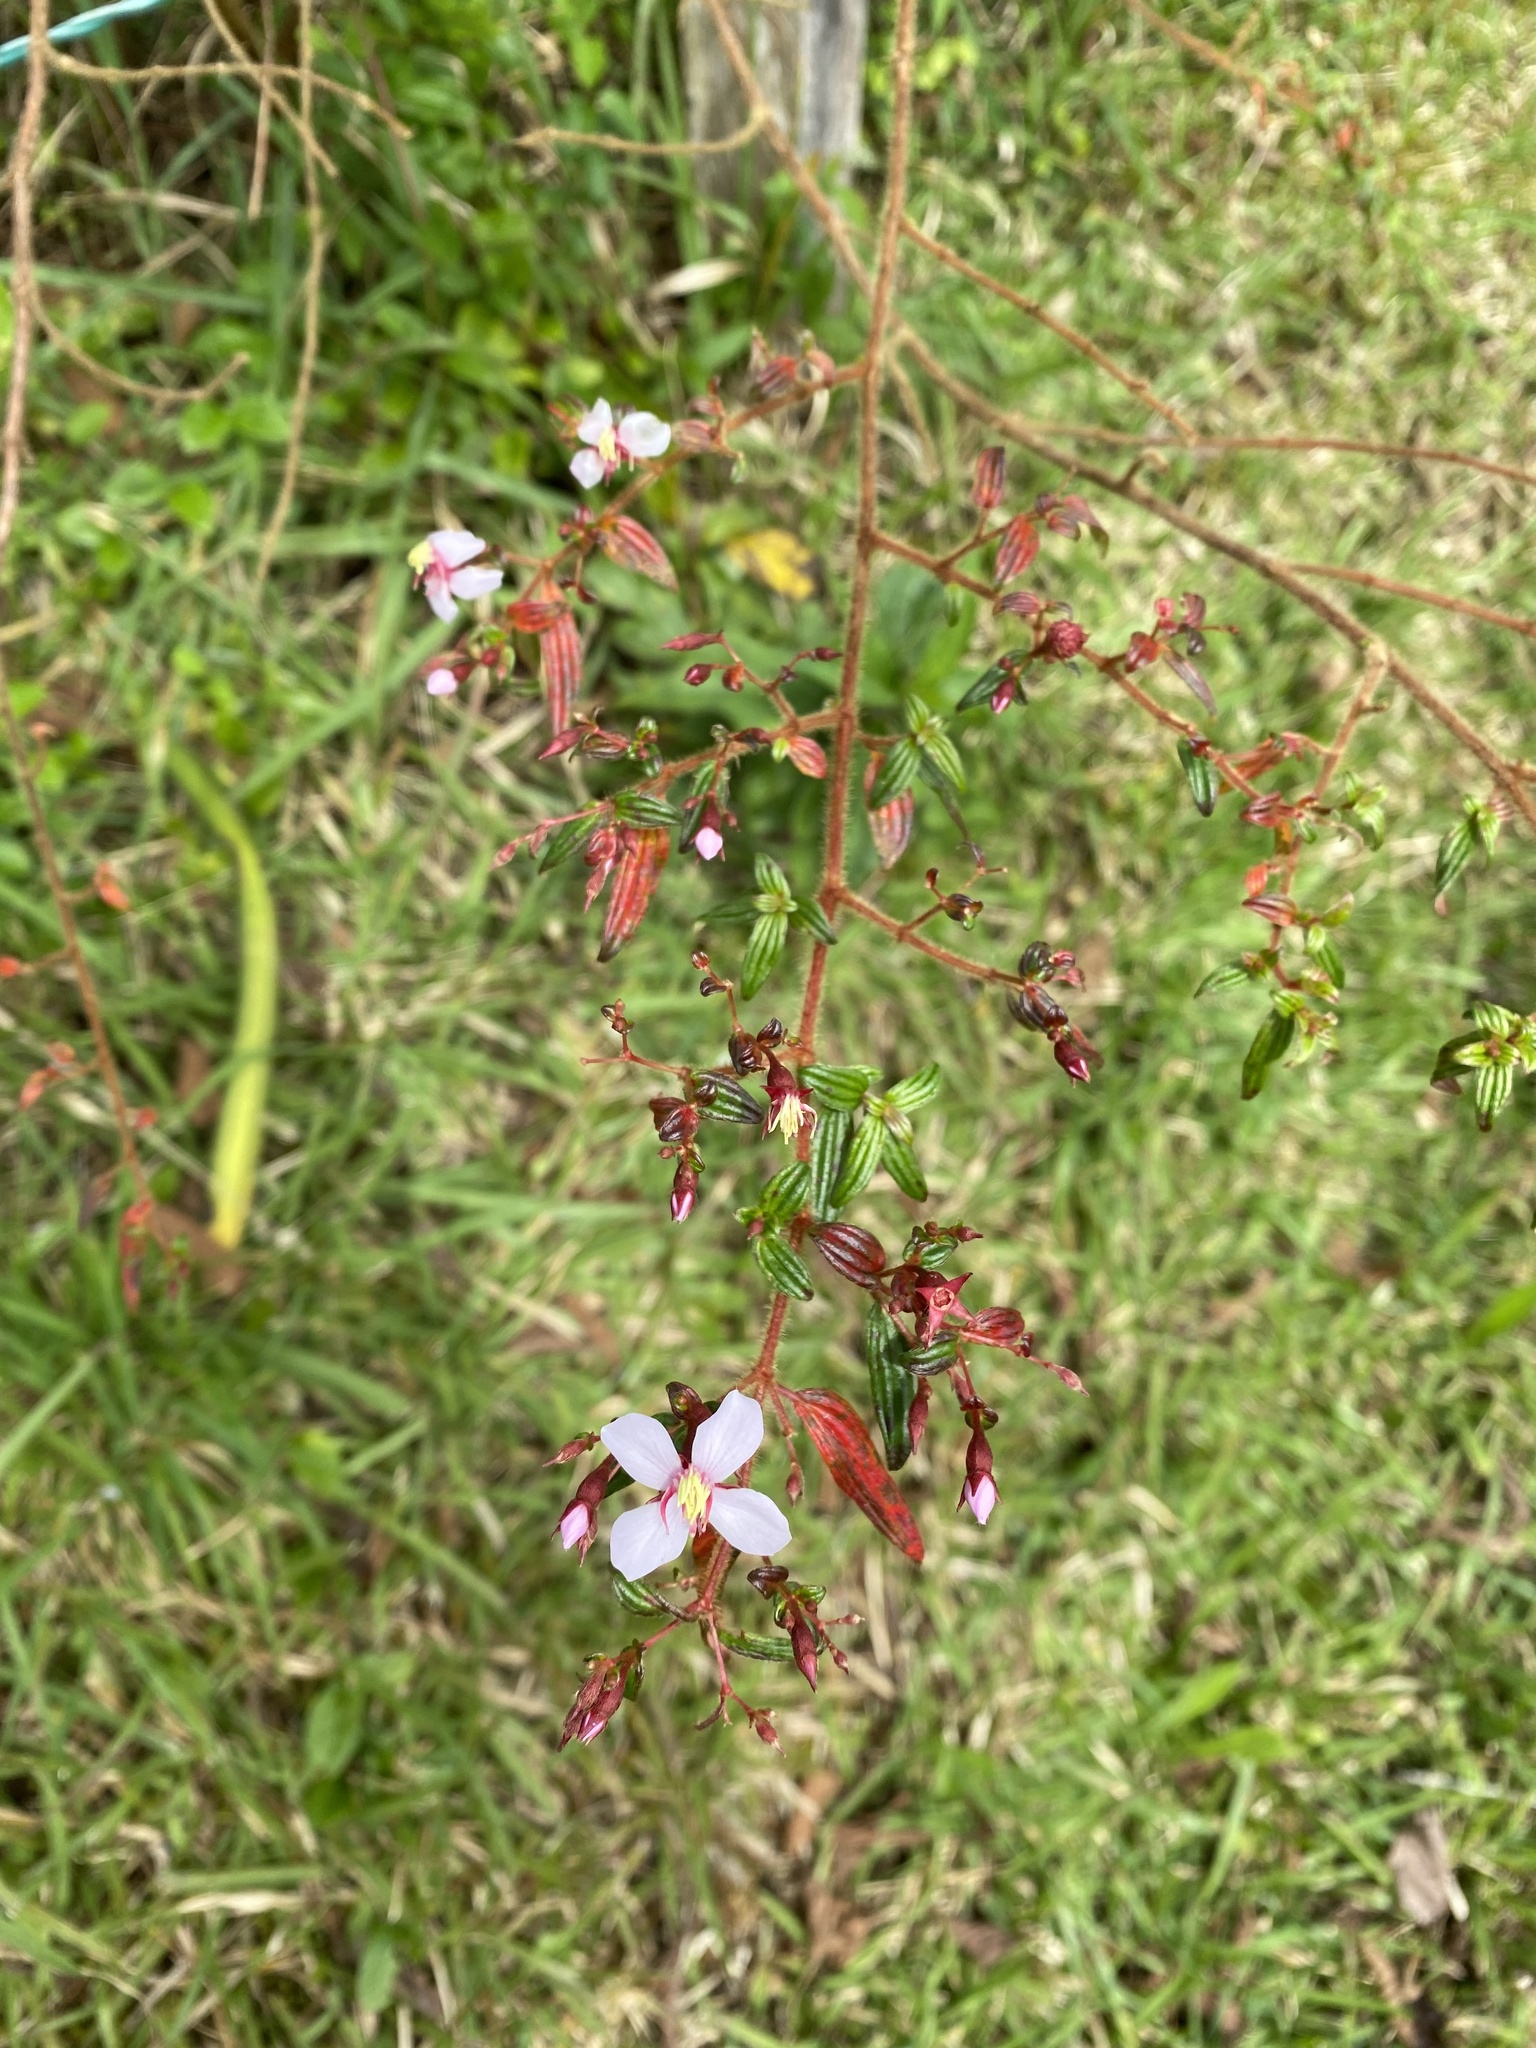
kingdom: Plantae
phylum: Tracheophyta
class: Magnoliopsida
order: Myrtales
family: Melastomataceae
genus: Monochaetum
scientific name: Monochaetum floribundum
